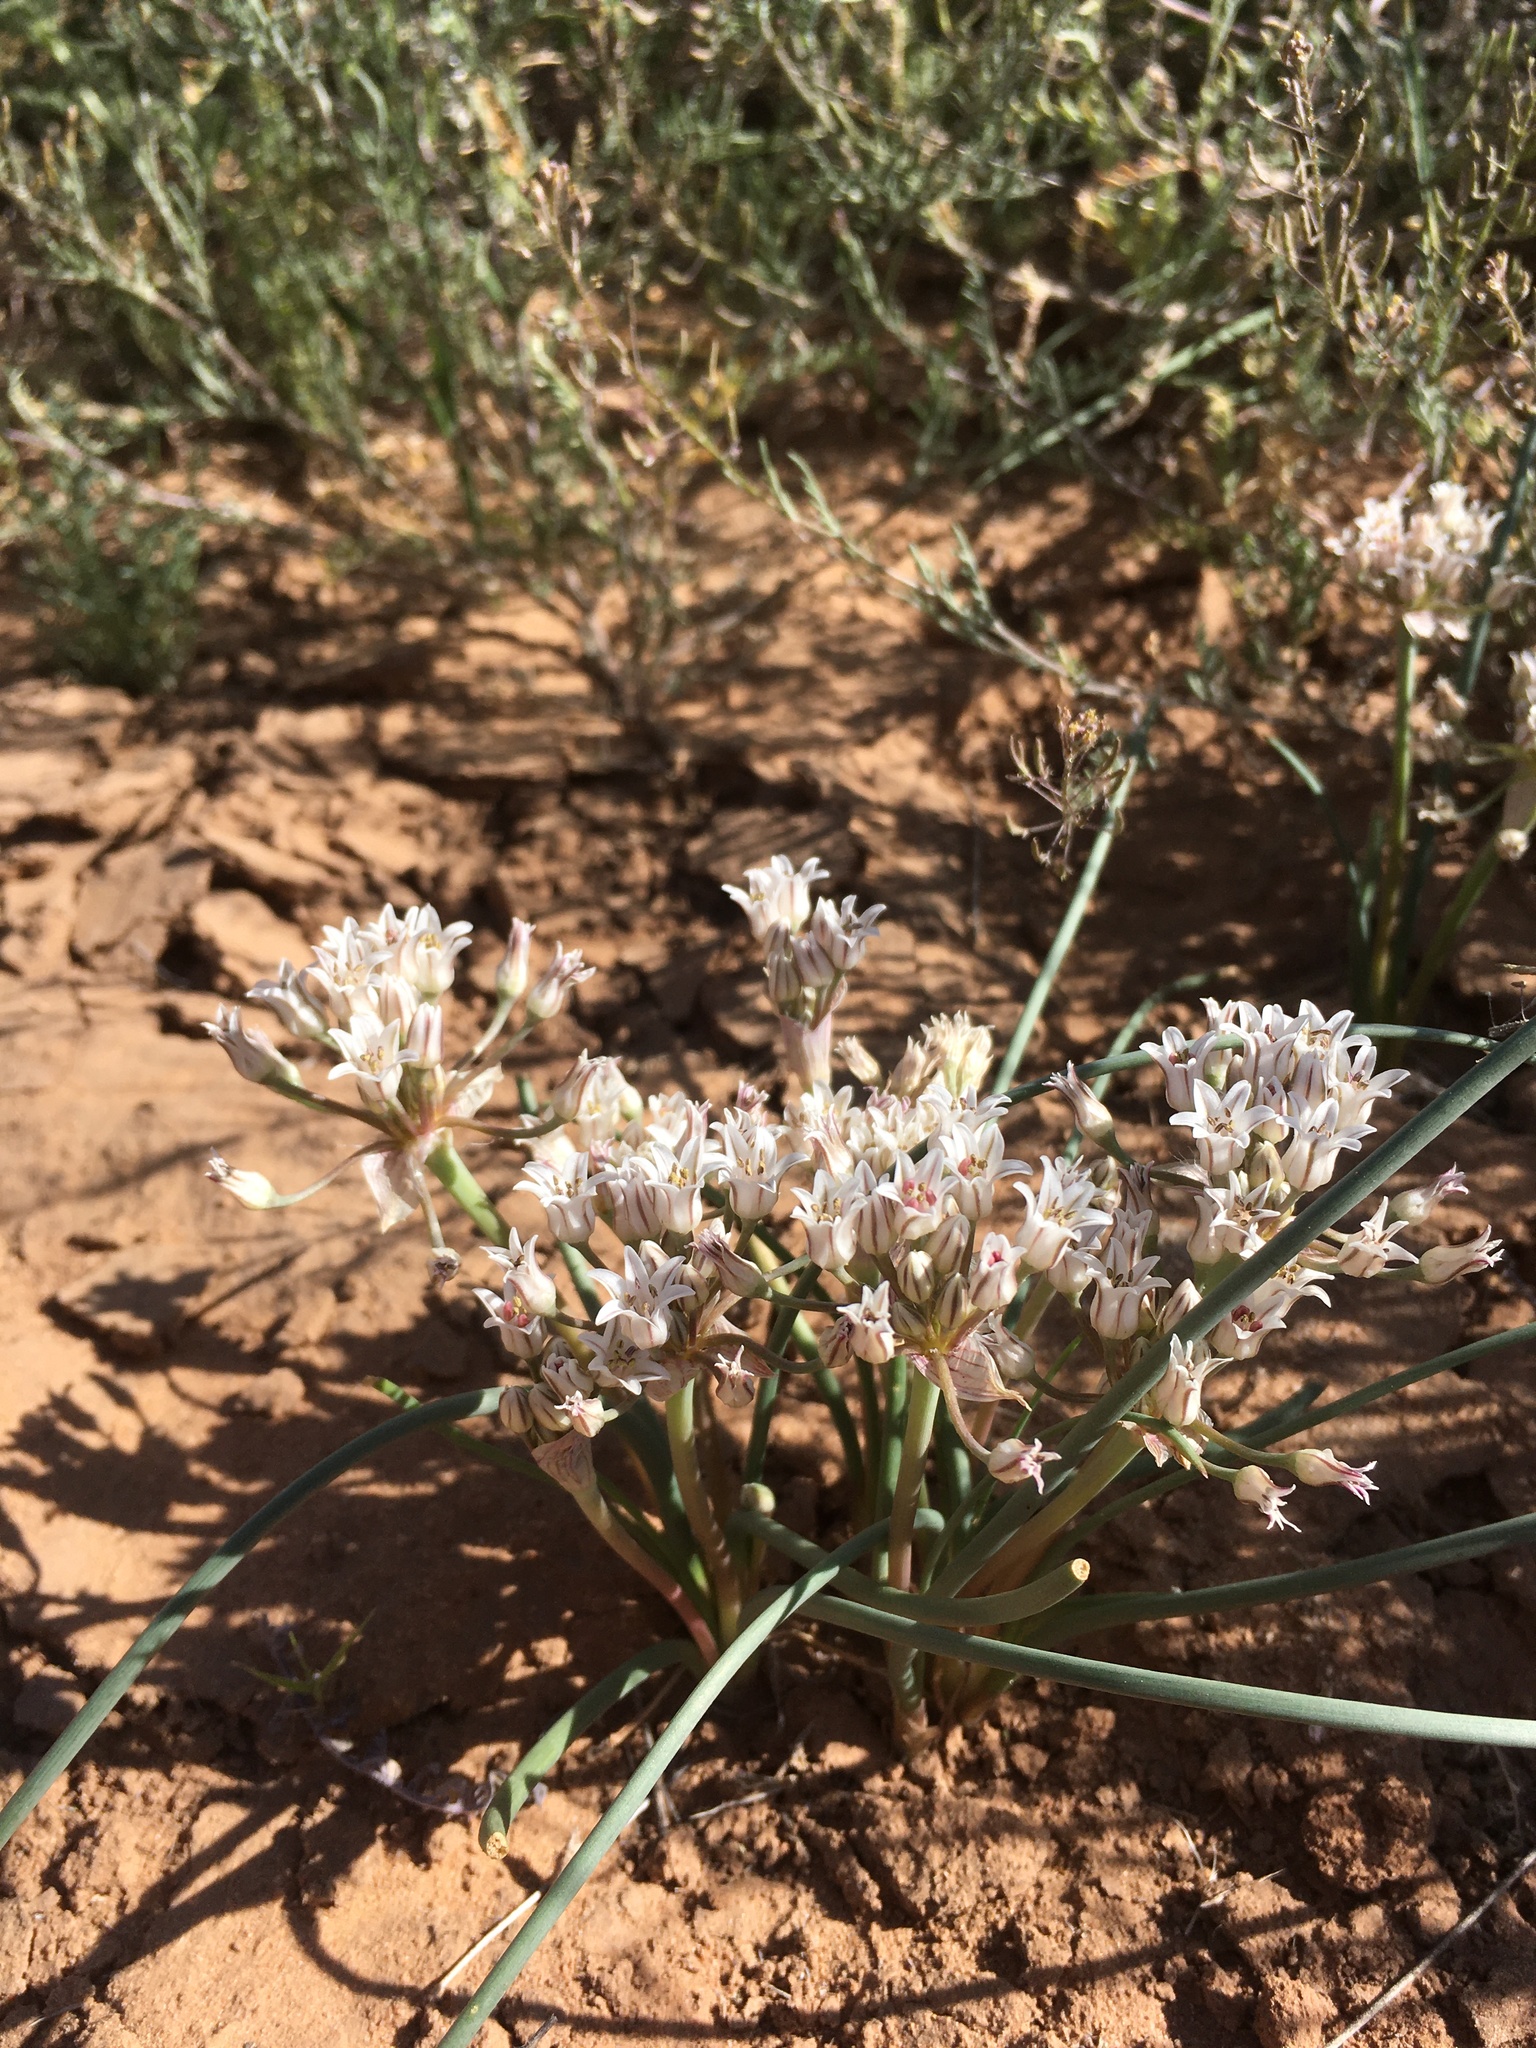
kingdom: Plantae
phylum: Tracheophyta
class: Liliopsida
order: Asparagales
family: Amaryllidaceae
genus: Allium
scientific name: Allium macropetalum
